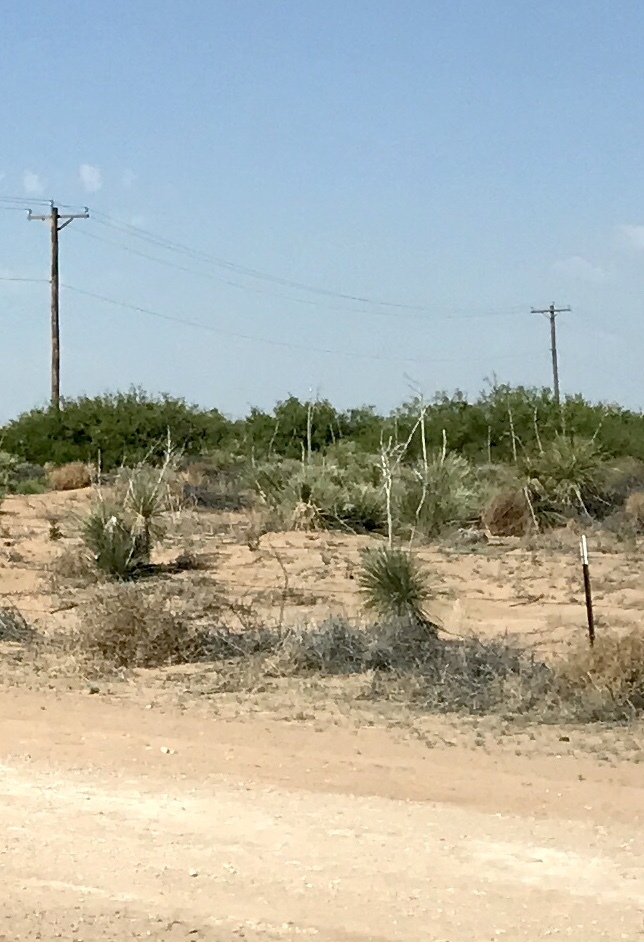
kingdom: Plantae
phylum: Tracheophyta
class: Liliopsida
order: Asparagales
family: Asparagaceae
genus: Yucca
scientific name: Yucca elata
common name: Palmella
